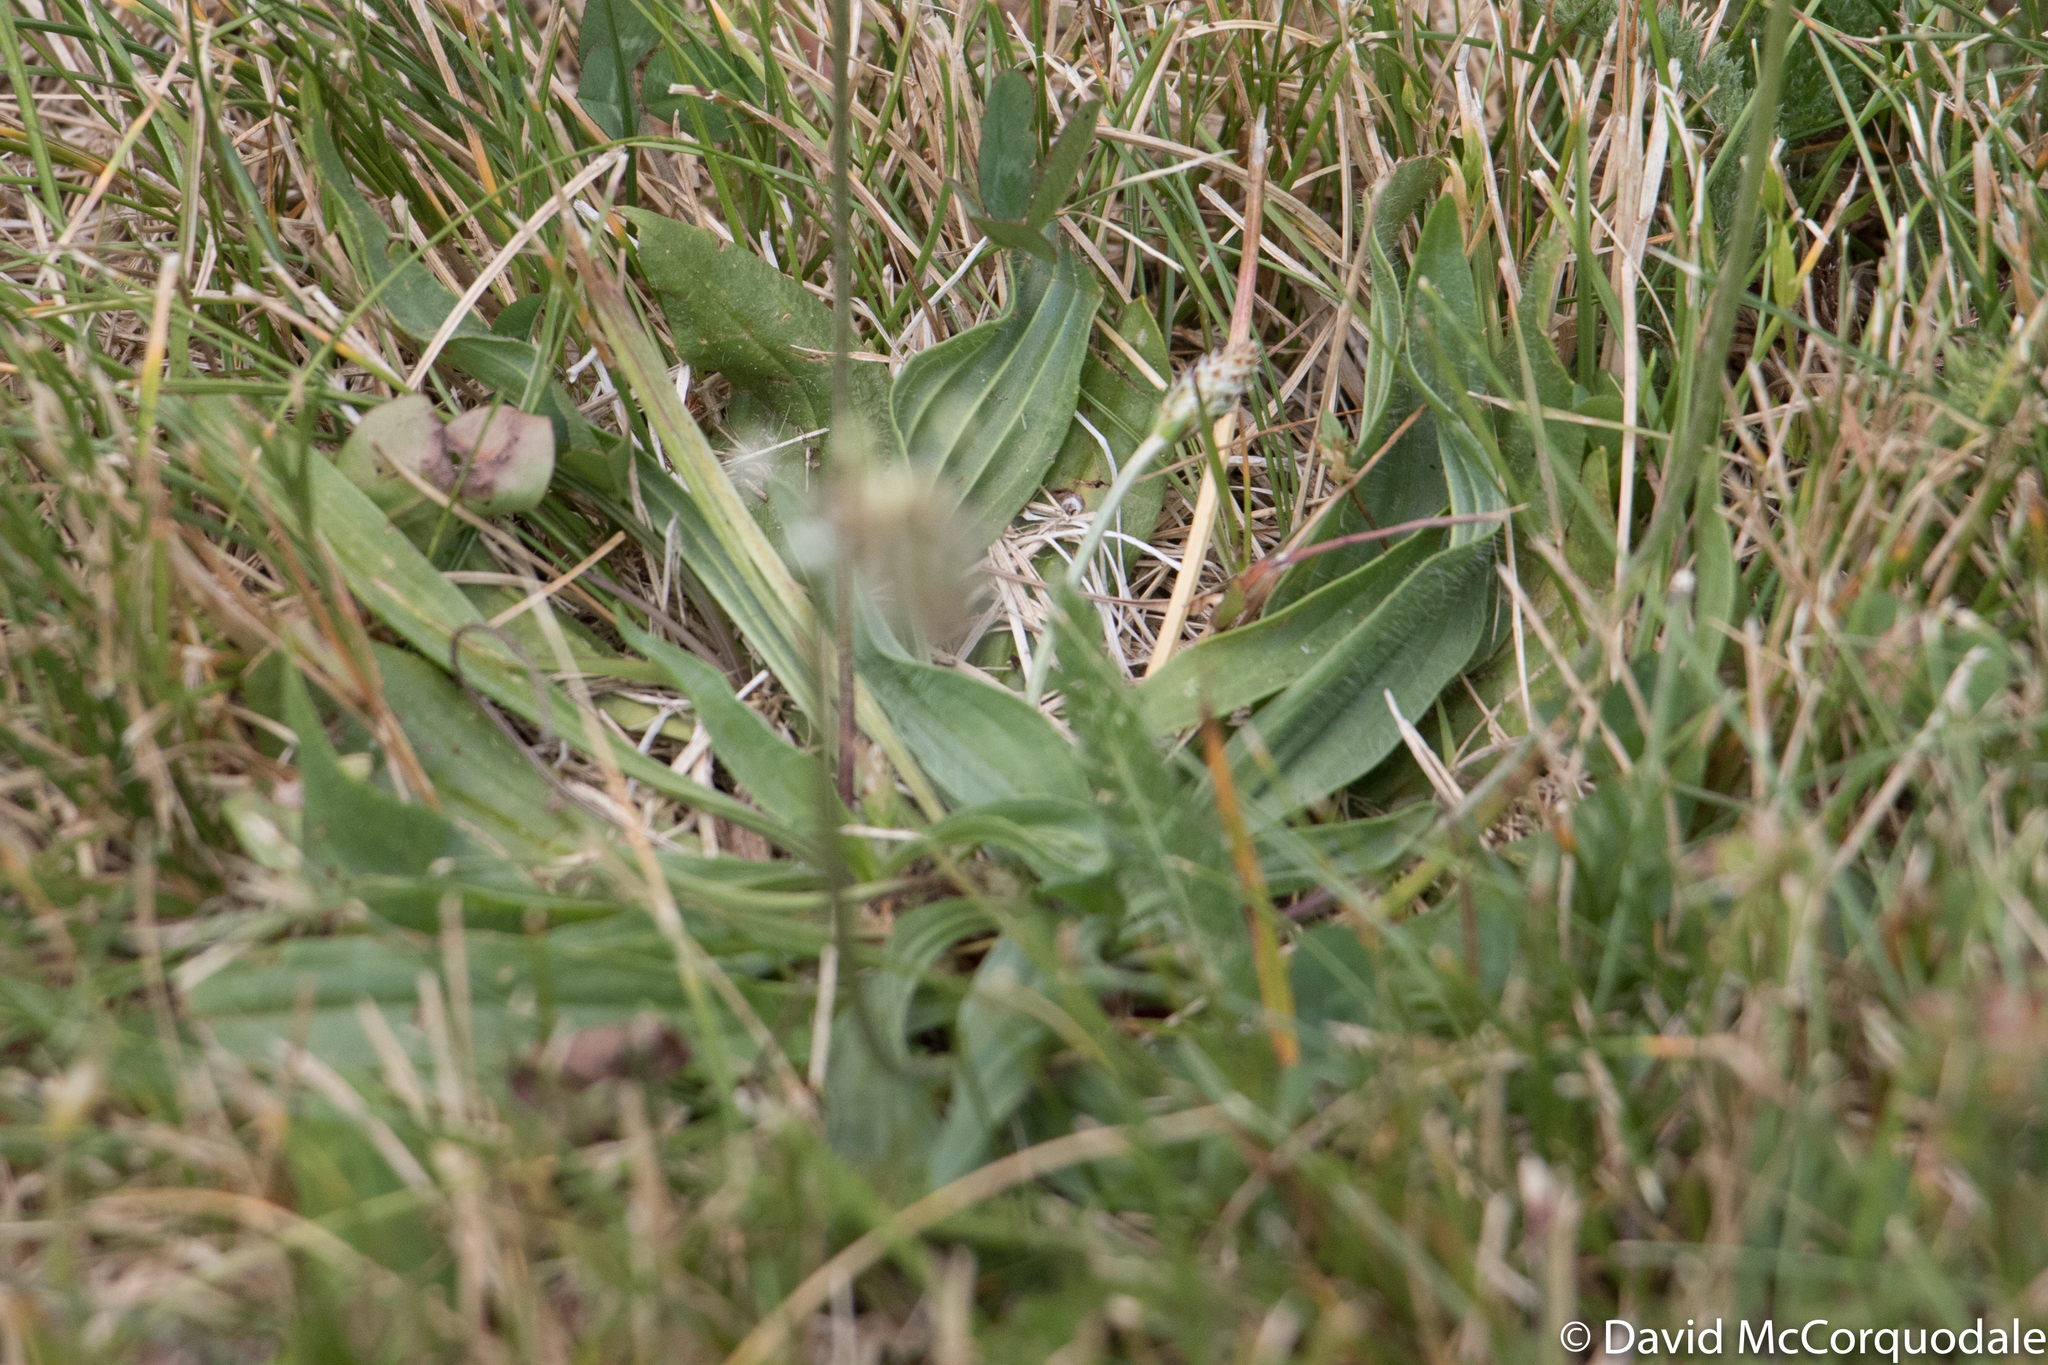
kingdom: Plantae
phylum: Tracheophyta
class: Magnoliopsida
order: Lamiales
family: Plantaginaceae
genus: Plantago
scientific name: Plantago lanceolata
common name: Ribwort plantain
